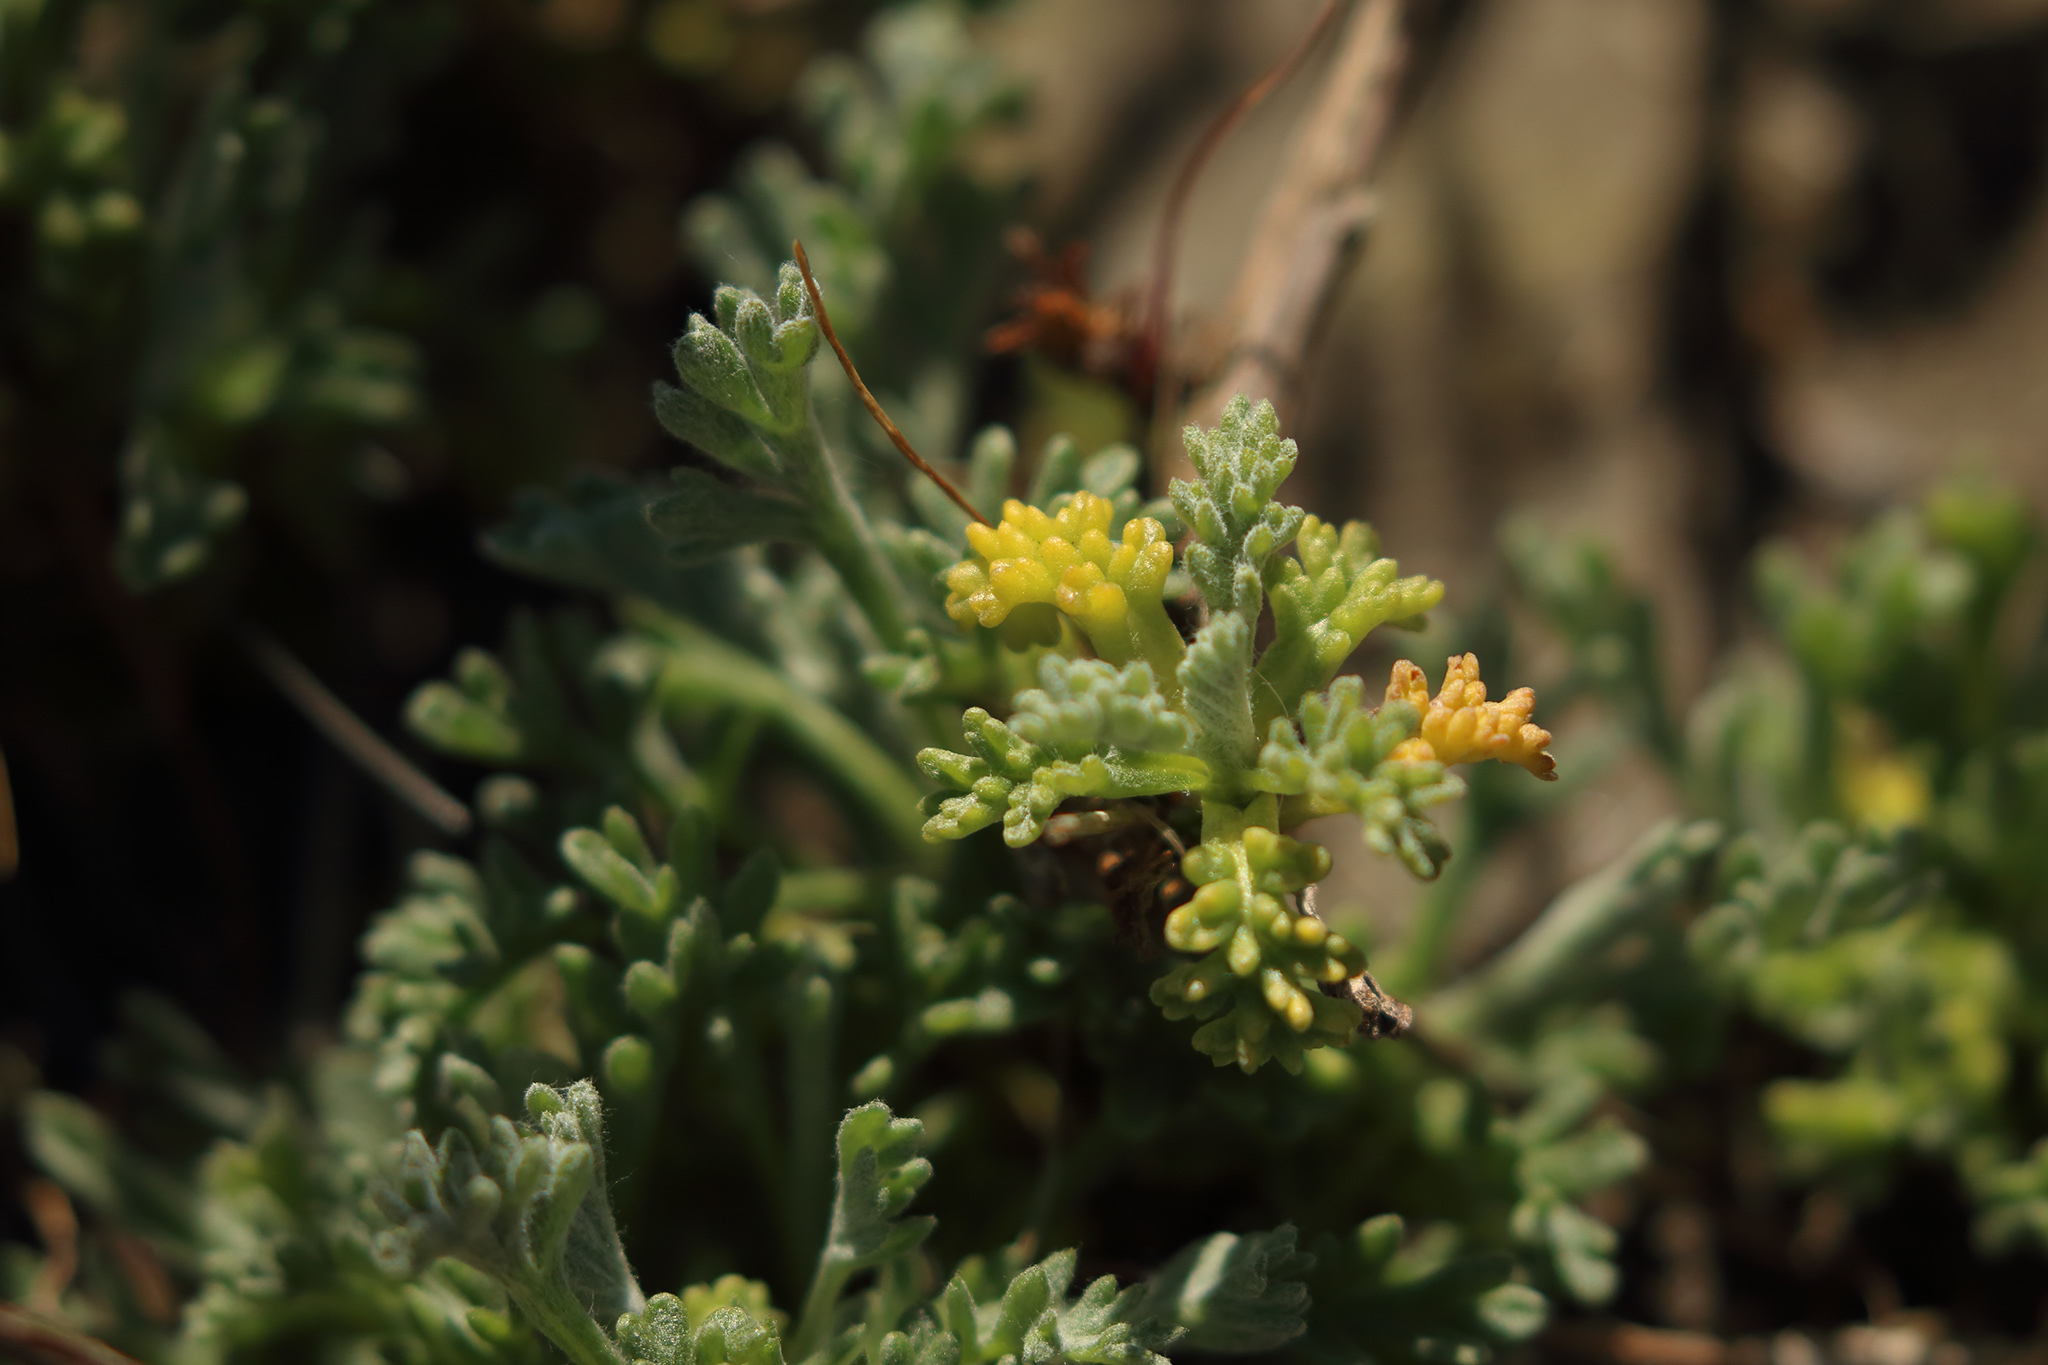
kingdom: Plantae
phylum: Tracheophyta
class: Magnoliopsida
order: Asterales
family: Asteraceae
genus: Artemisia
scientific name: Artemisia maritima
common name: Wormseed
